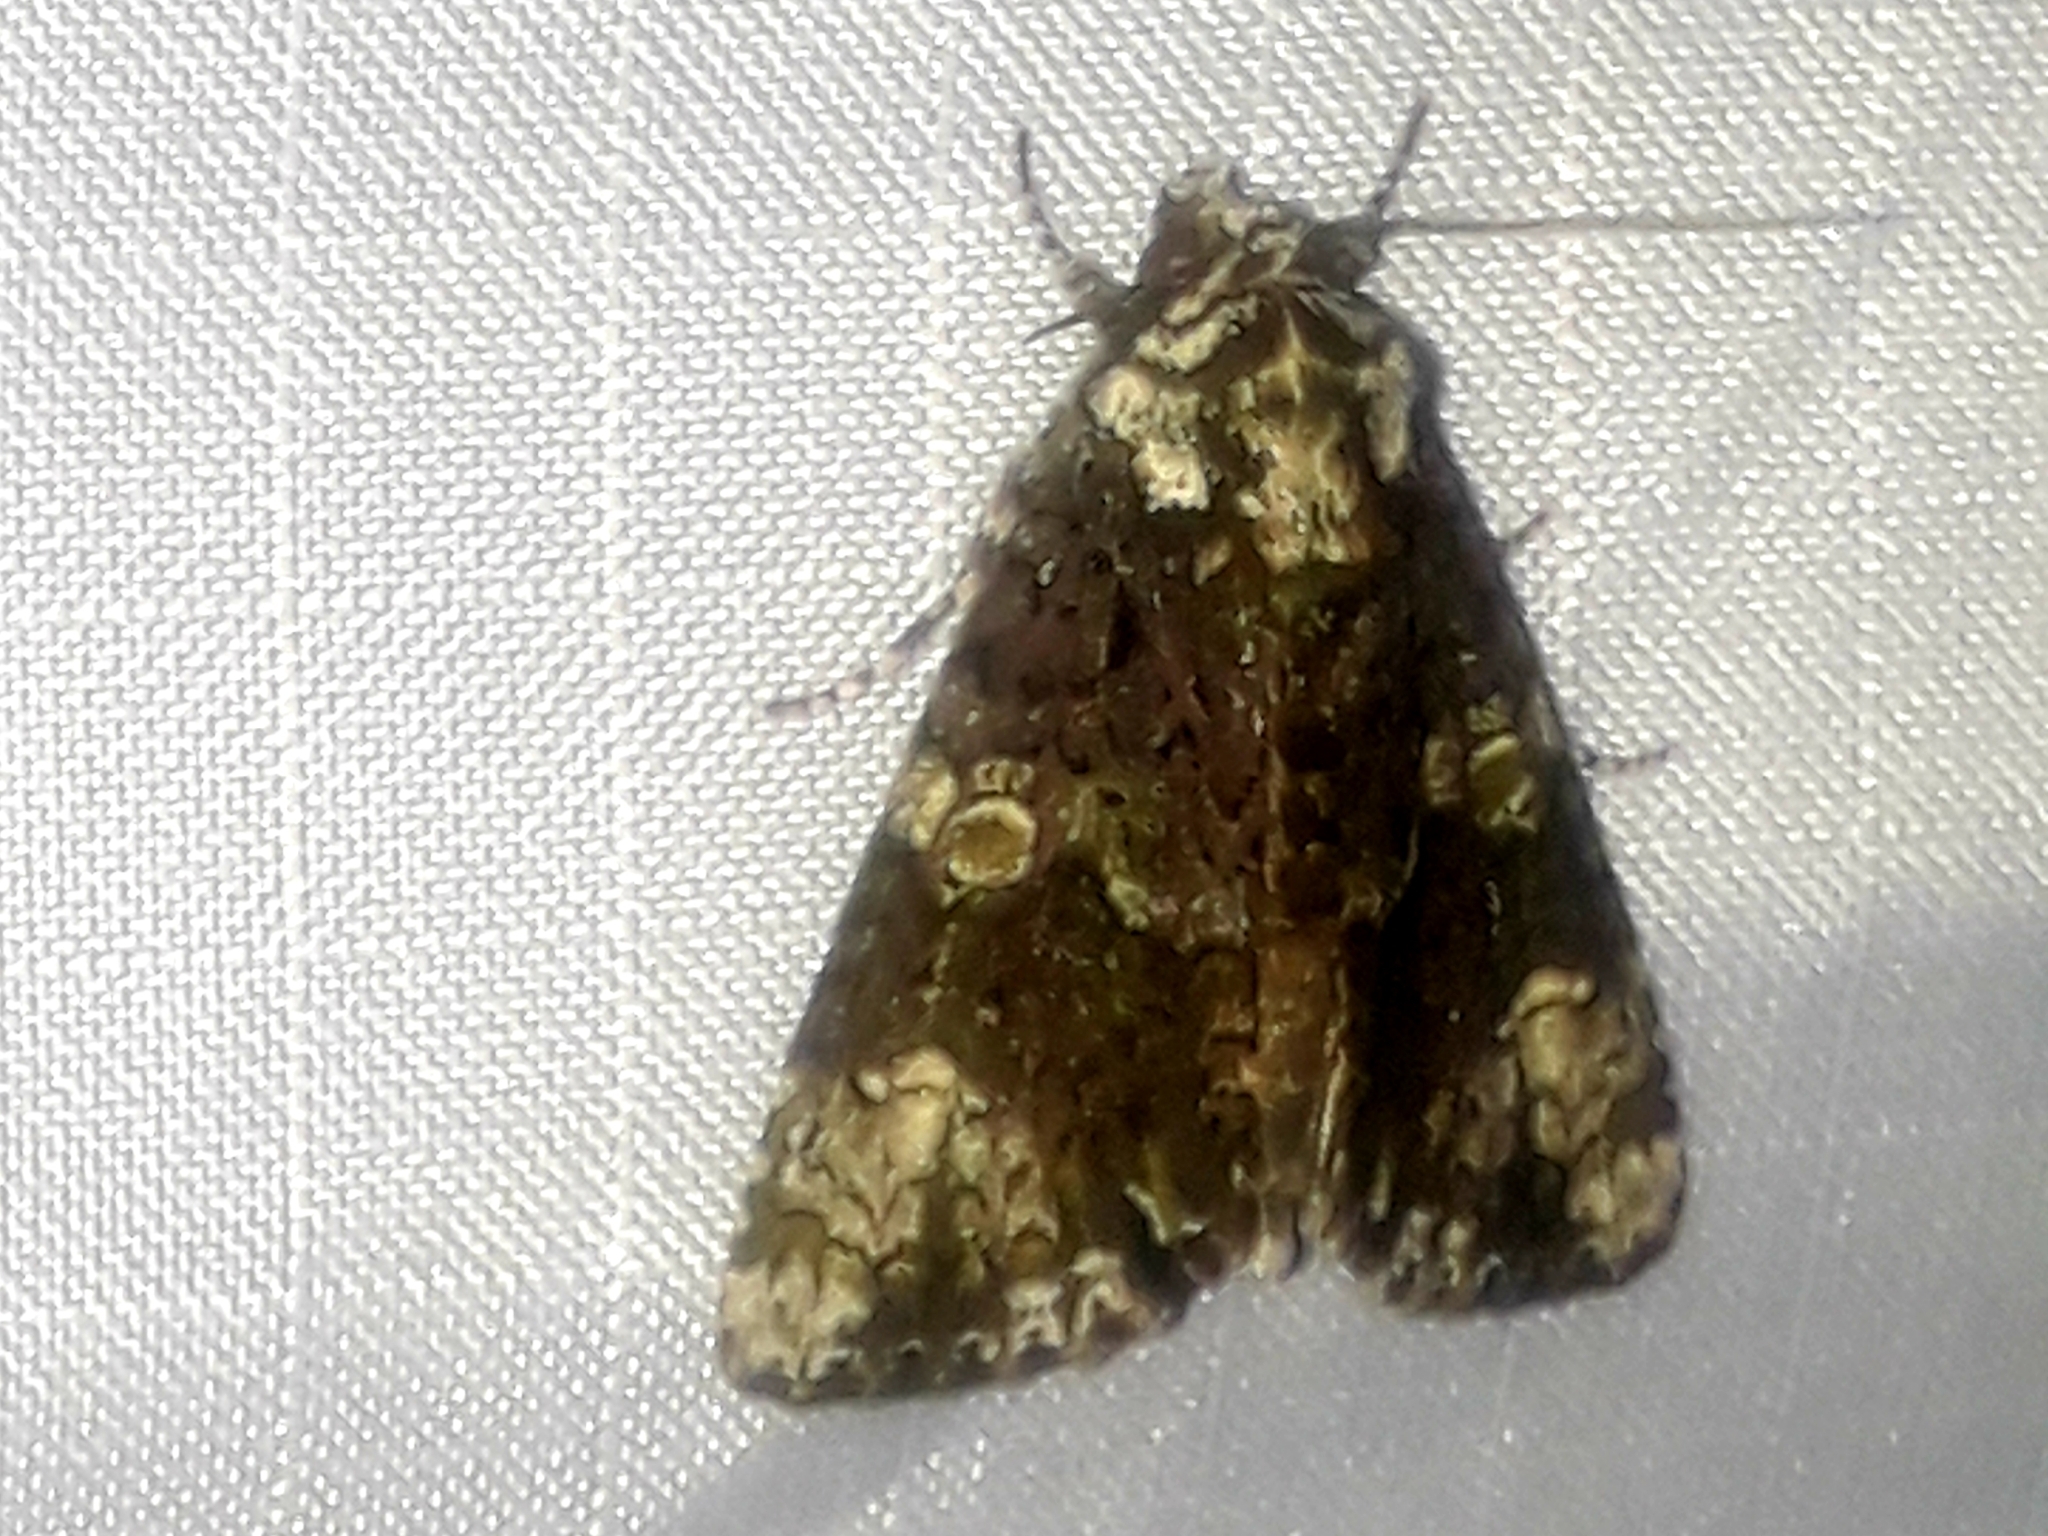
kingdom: Animalia
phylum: Arthropoda
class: Insecta
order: Lepidoptera
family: Noctuidae
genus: Craniophora
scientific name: Craniophora ligustri
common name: Coronet
